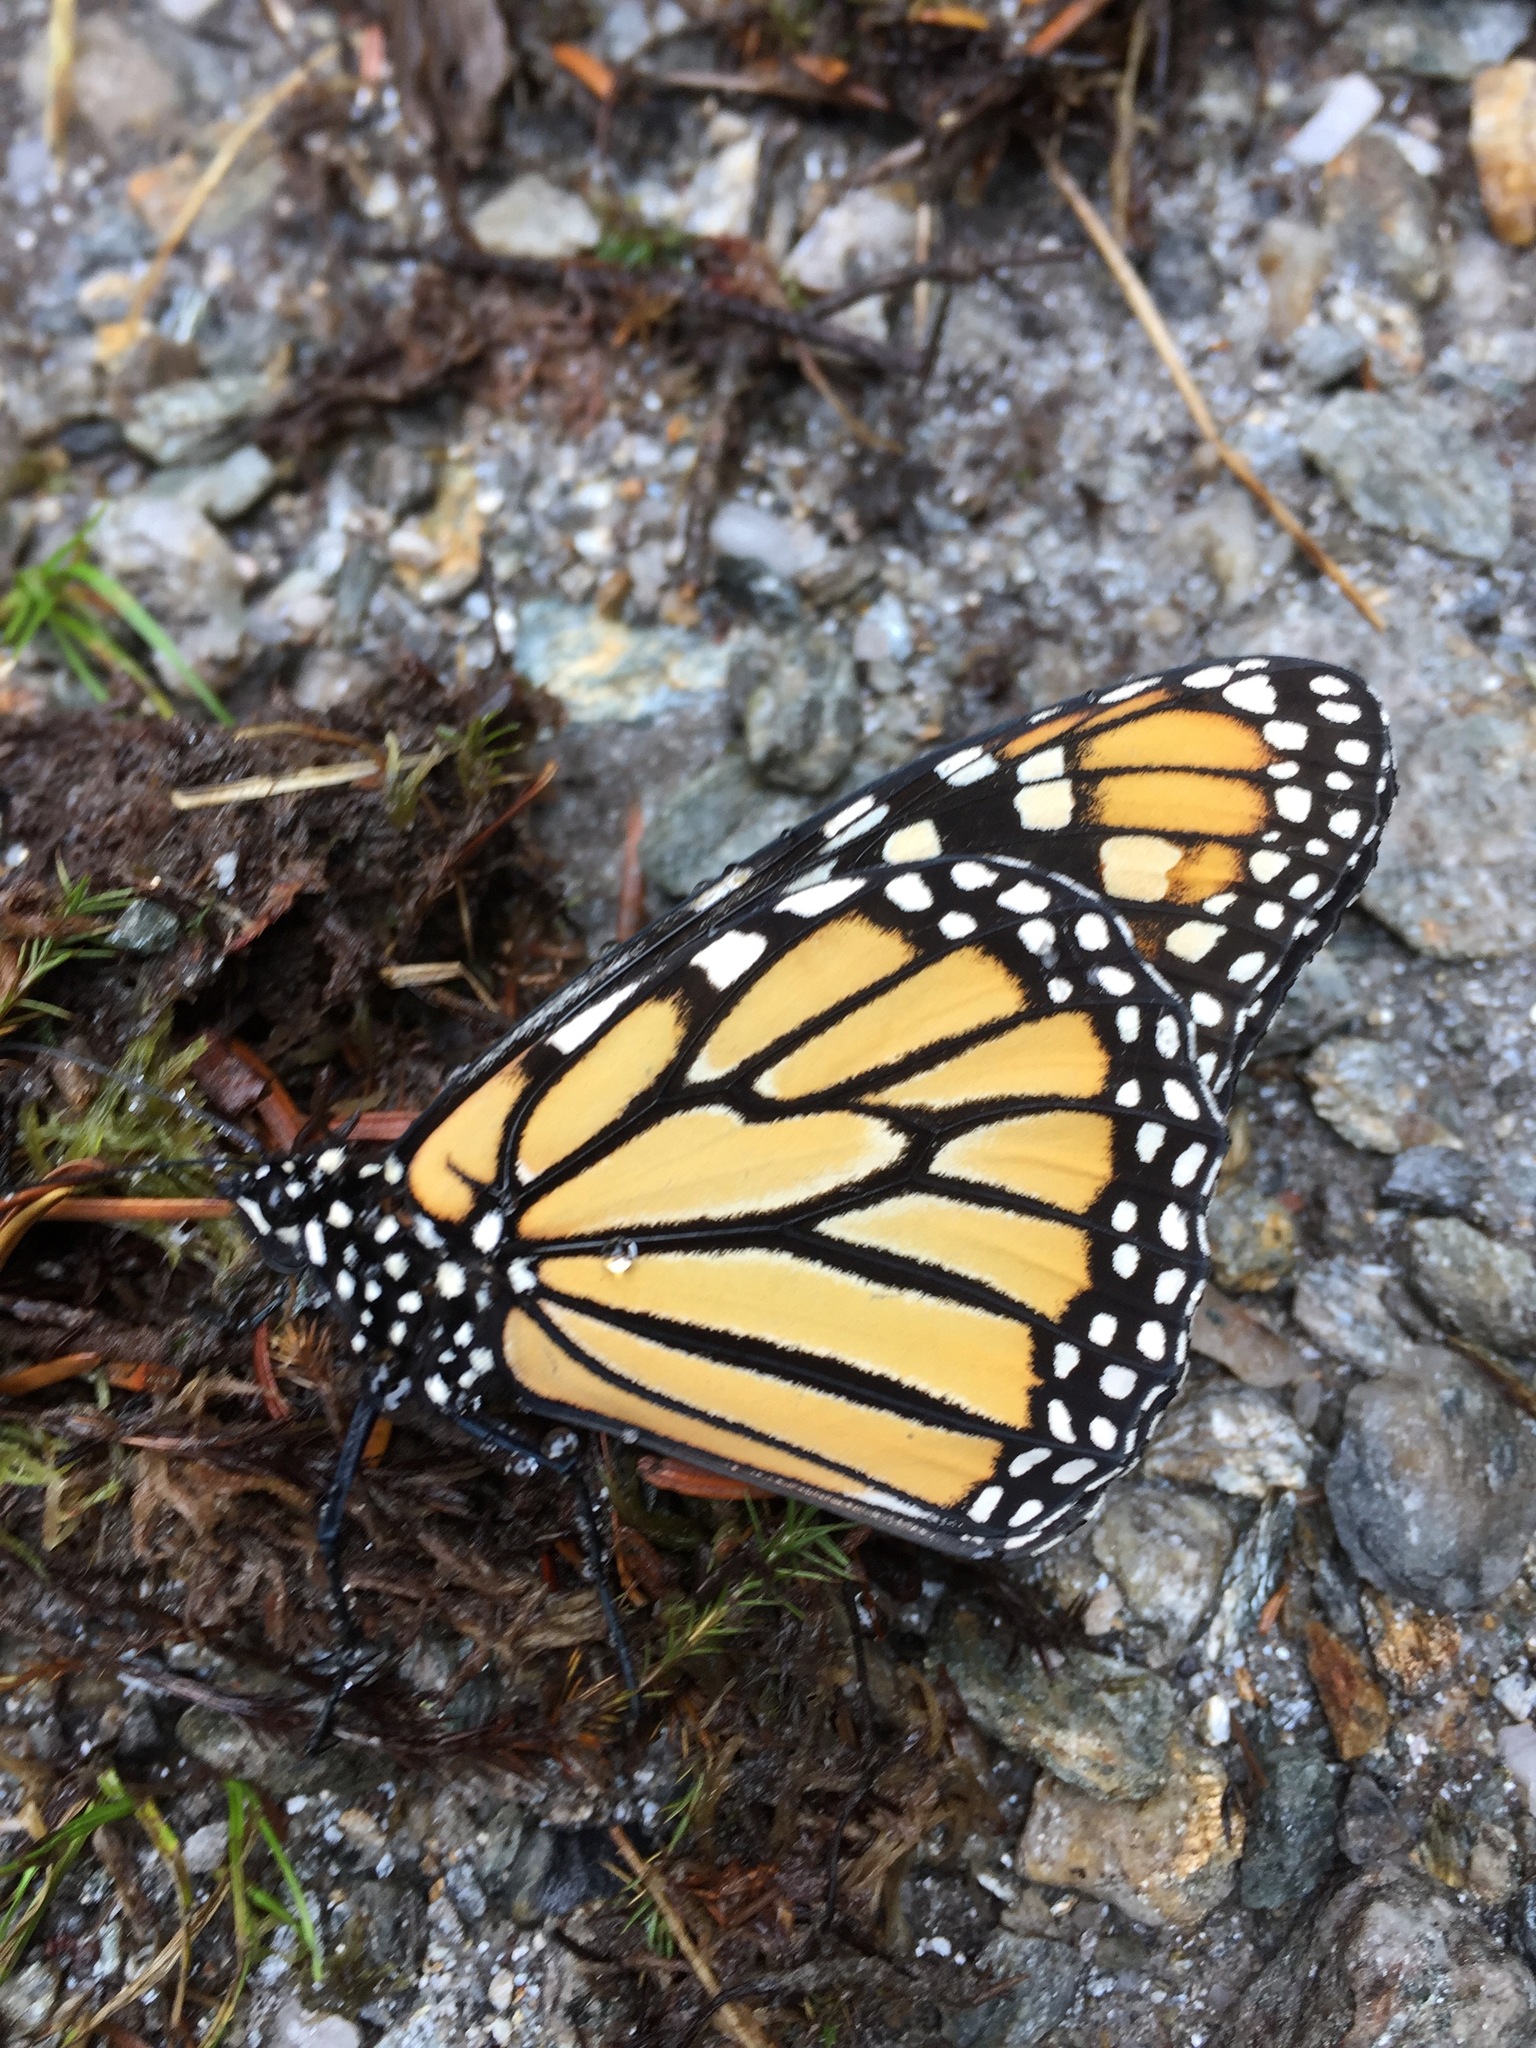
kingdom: Animalia
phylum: Arthropoda
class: Insecta
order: Lepidoptera
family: Nymphalidae
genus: Danaus
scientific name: Danaus plexippus
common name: Monarch
